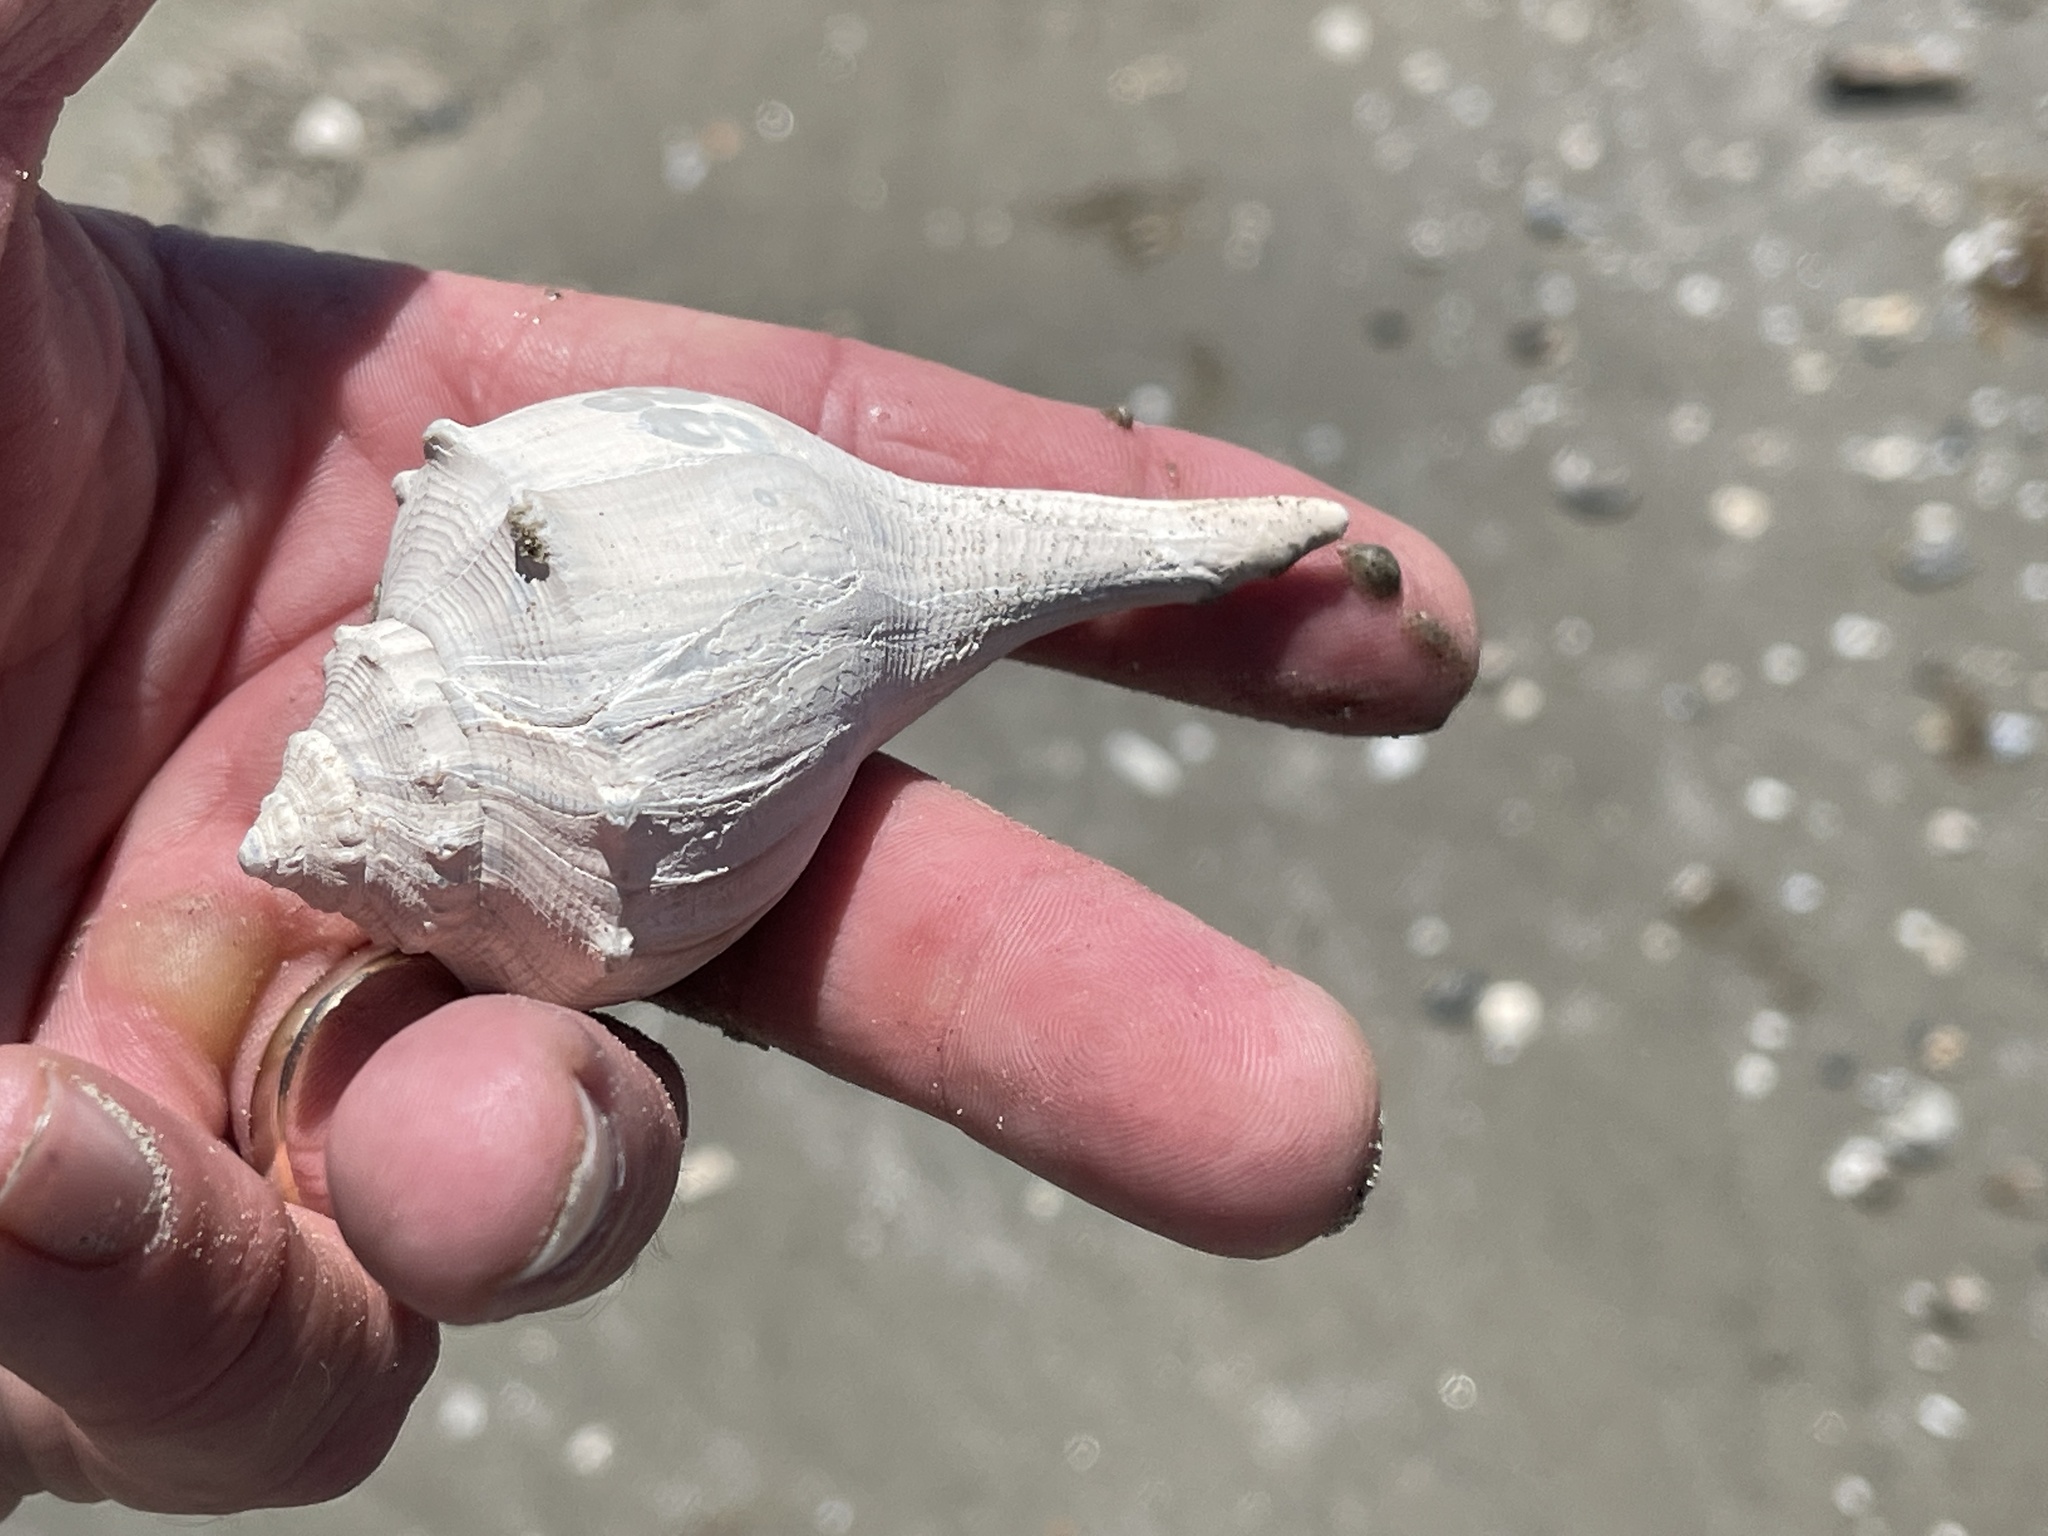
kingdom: Animalia
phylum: Mollusca
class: Gastropoda
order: Neogastropoda
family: Busyconidae
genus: Sinistrofulgur
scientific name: Sinistrofulgur pulleyi
